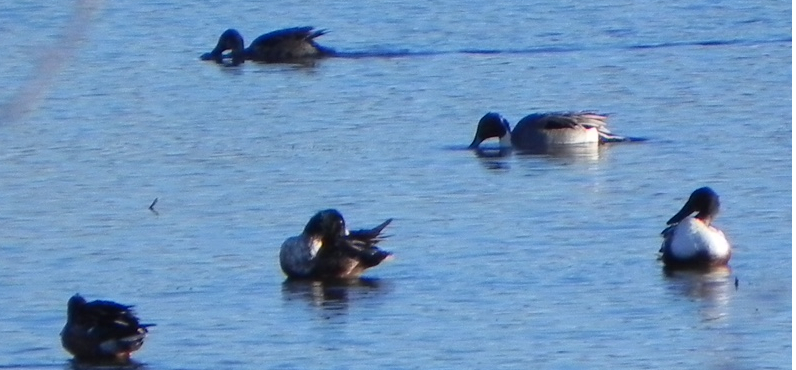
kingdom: Animalia
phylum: Chordata
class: Aves
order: Anseriformes
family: Anatidae
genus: Anas
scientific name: Anas acuta
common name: Northern pintail
